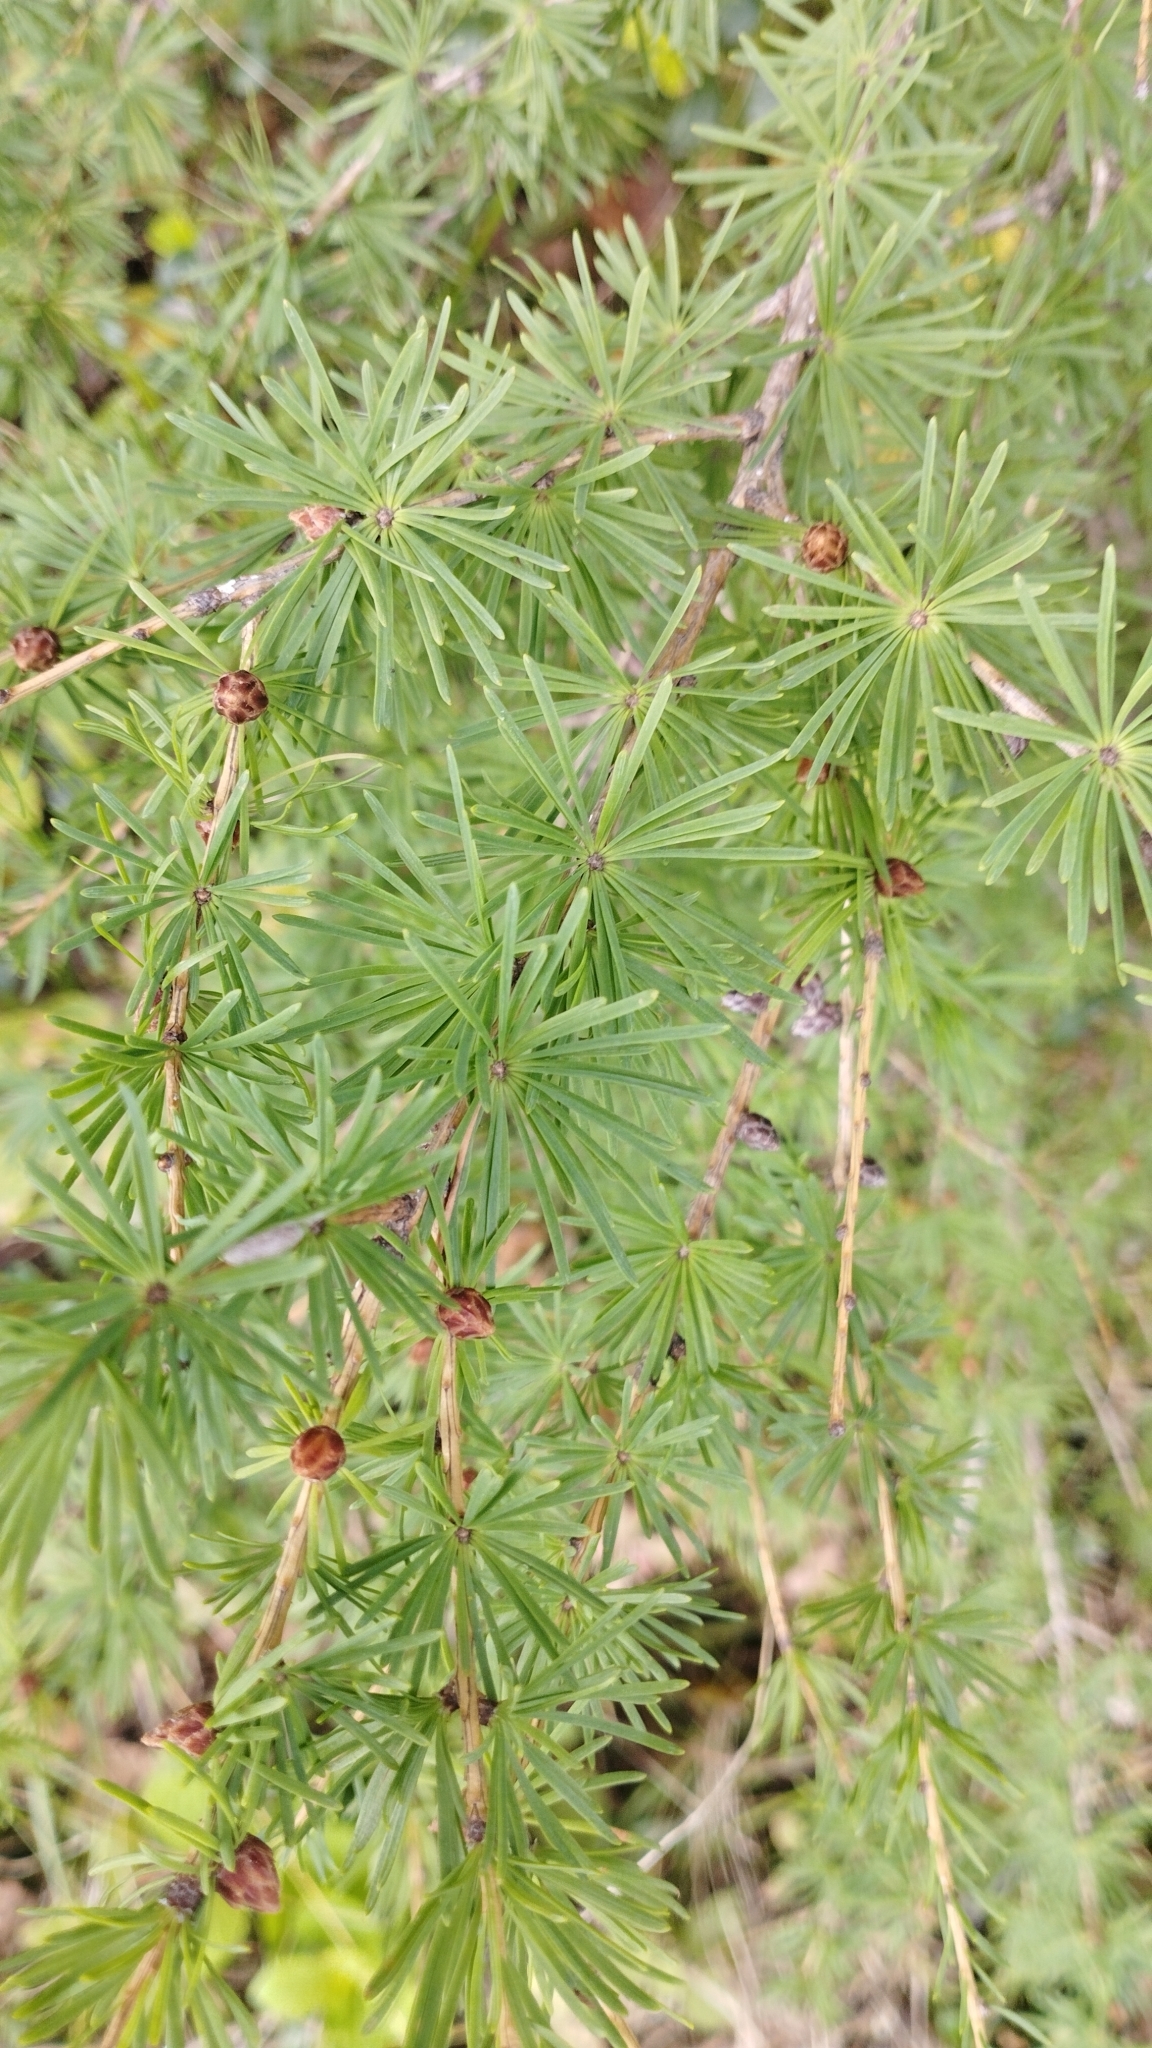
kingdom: Plantae
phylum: Tracheophyta
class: Pinopsida
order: Pinales
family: Pinaceae
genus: Larix
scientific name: Larix sibirica
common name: Siberian larch
